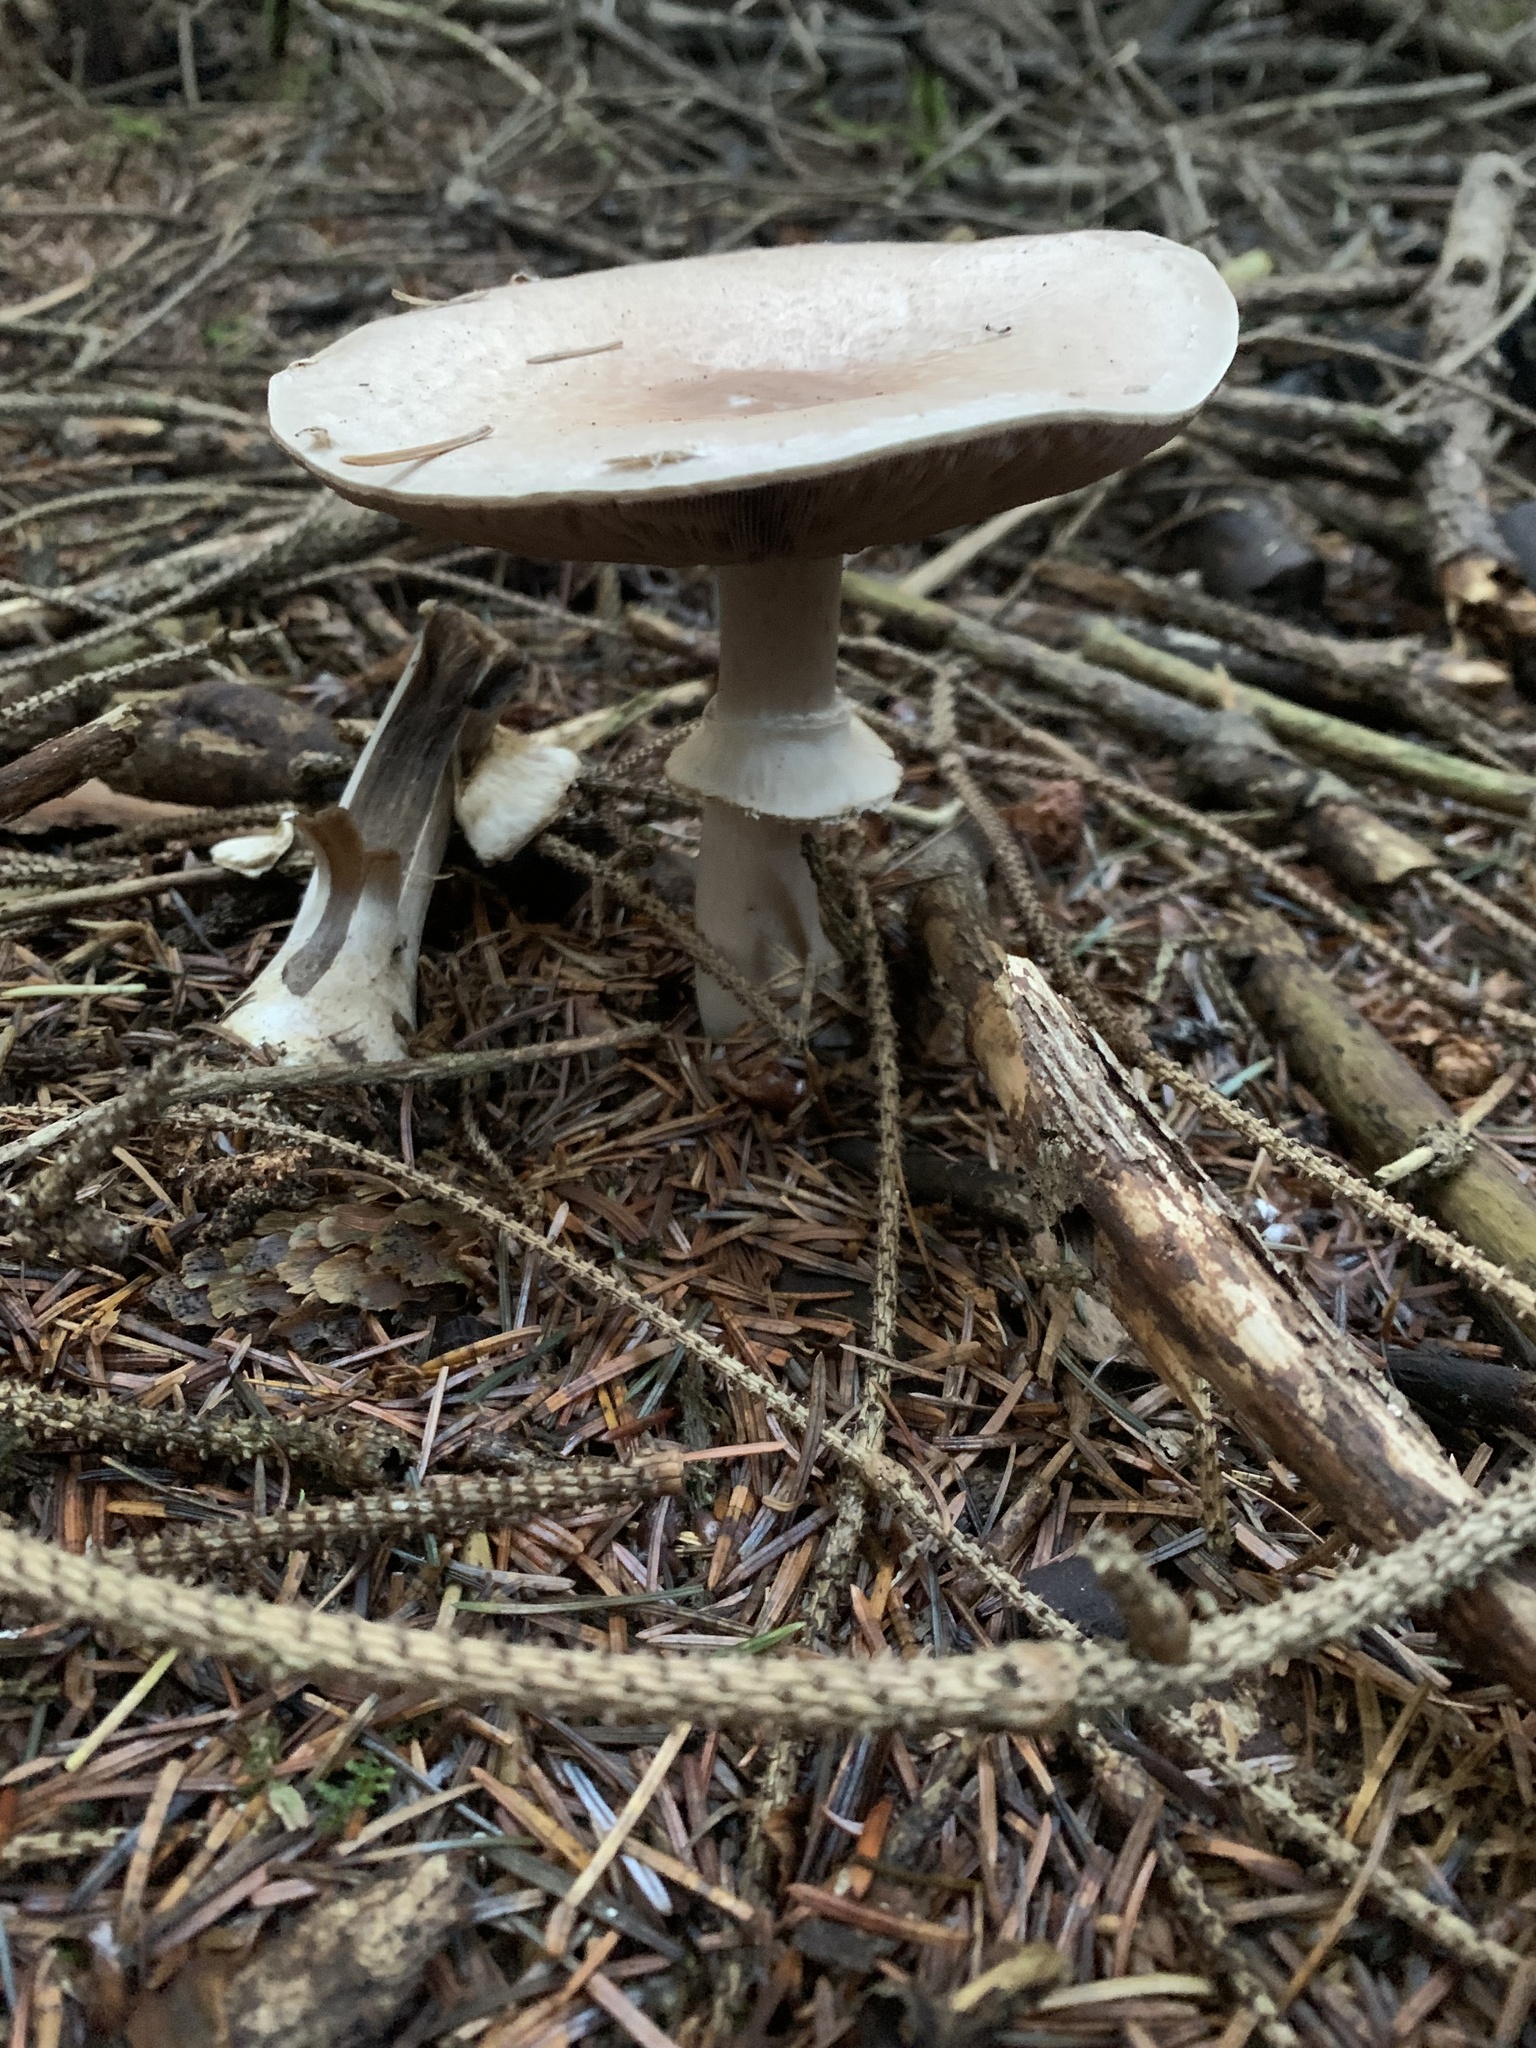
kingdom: Fungi
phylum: Basidiomycota
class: Agaricomycetes
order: Agaricales
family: Agaricaceae
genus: Agaricus
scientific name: Agaricus hondensis
